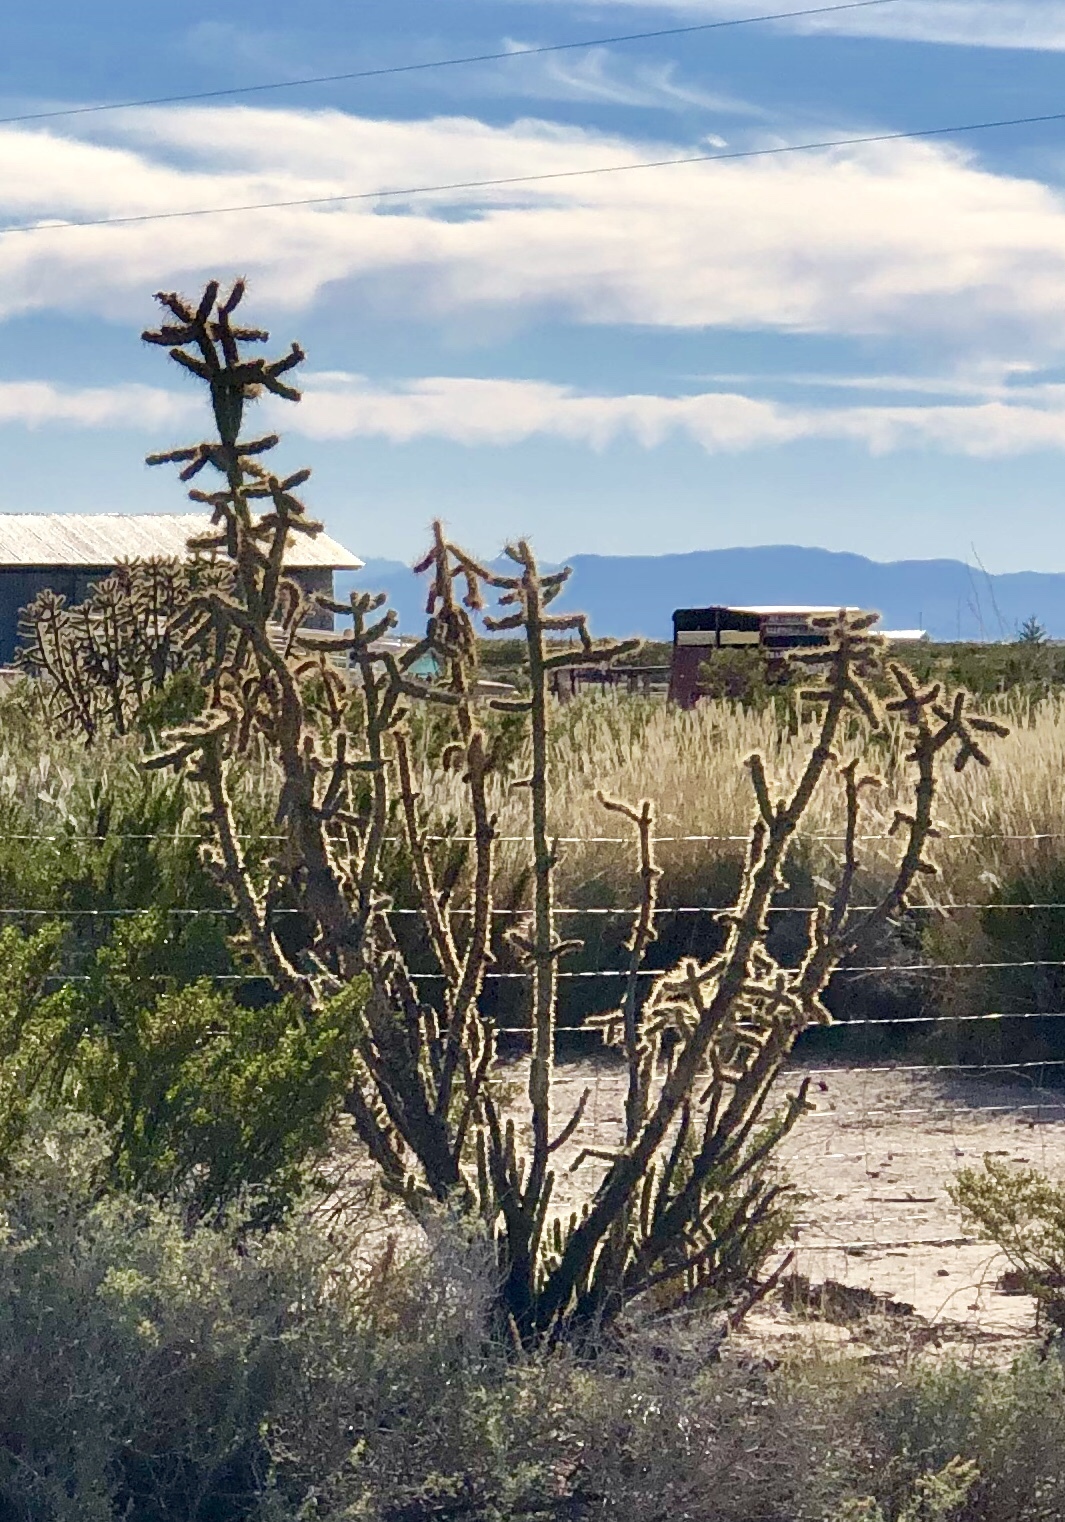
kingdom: Plantae
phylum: Tracheophyta
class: Magnoliopsida
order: Caryophyllales
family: Cactaceae
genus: Cylindropuntia
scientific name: Cylindropuntia imbricata
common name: Candelabrum cactus
